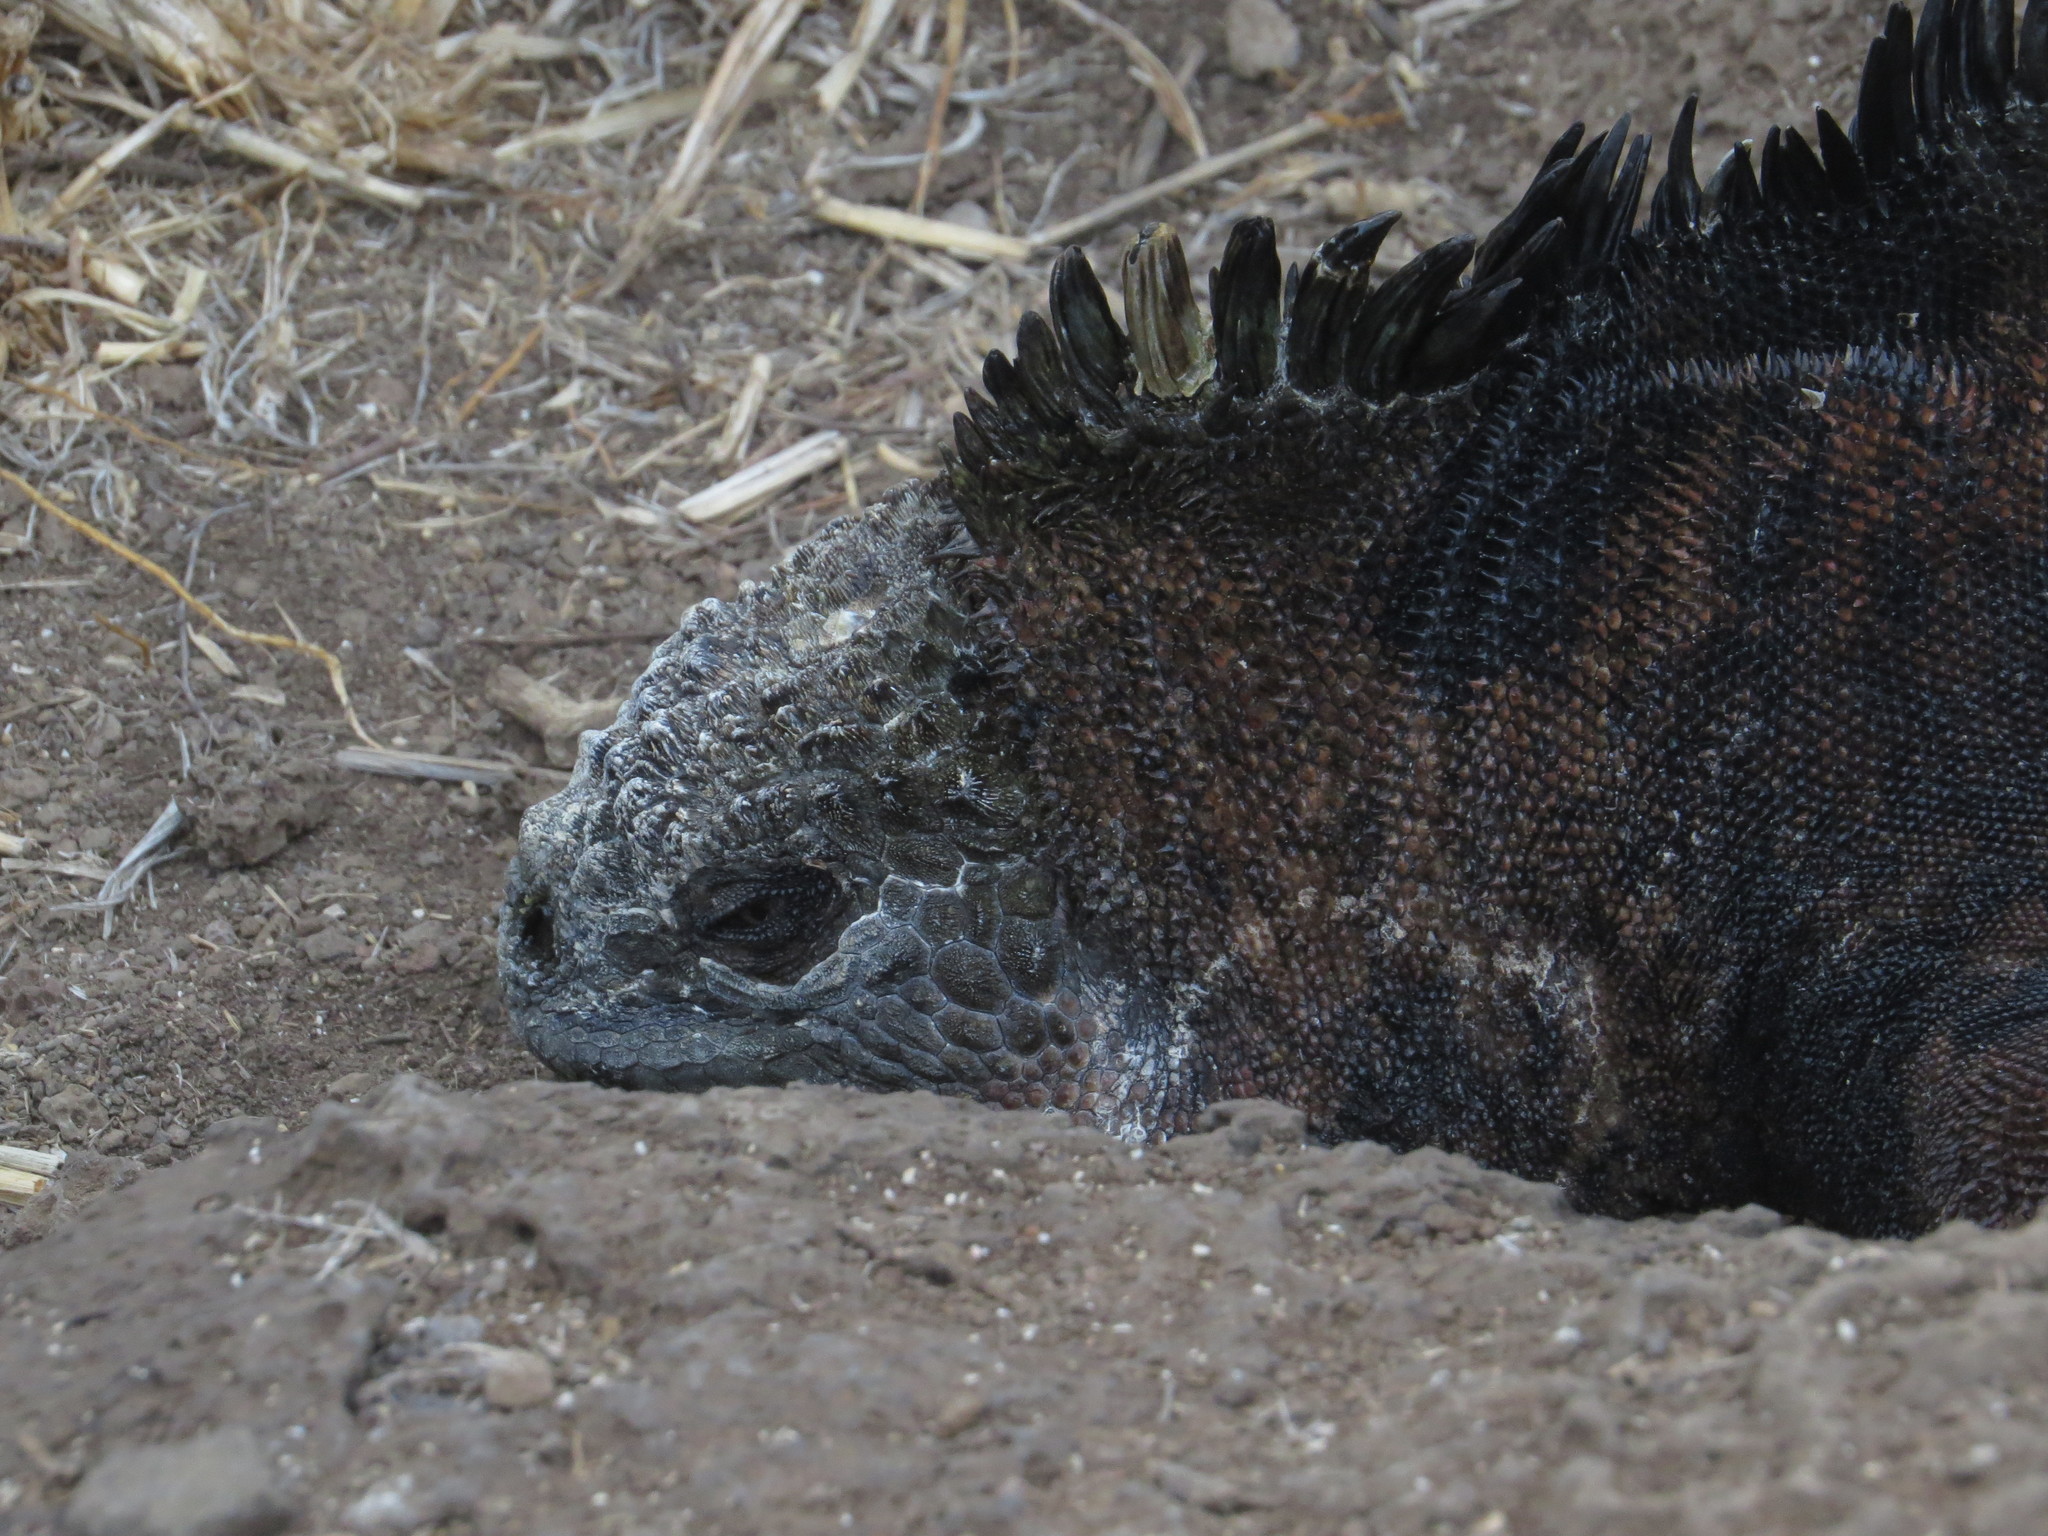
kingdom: Animalia
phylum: Chordata
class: Squamata
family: Iguanidae
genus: Amblyrhynchus
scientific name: Amblyrhynchus cristatus
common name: Marine iguana
